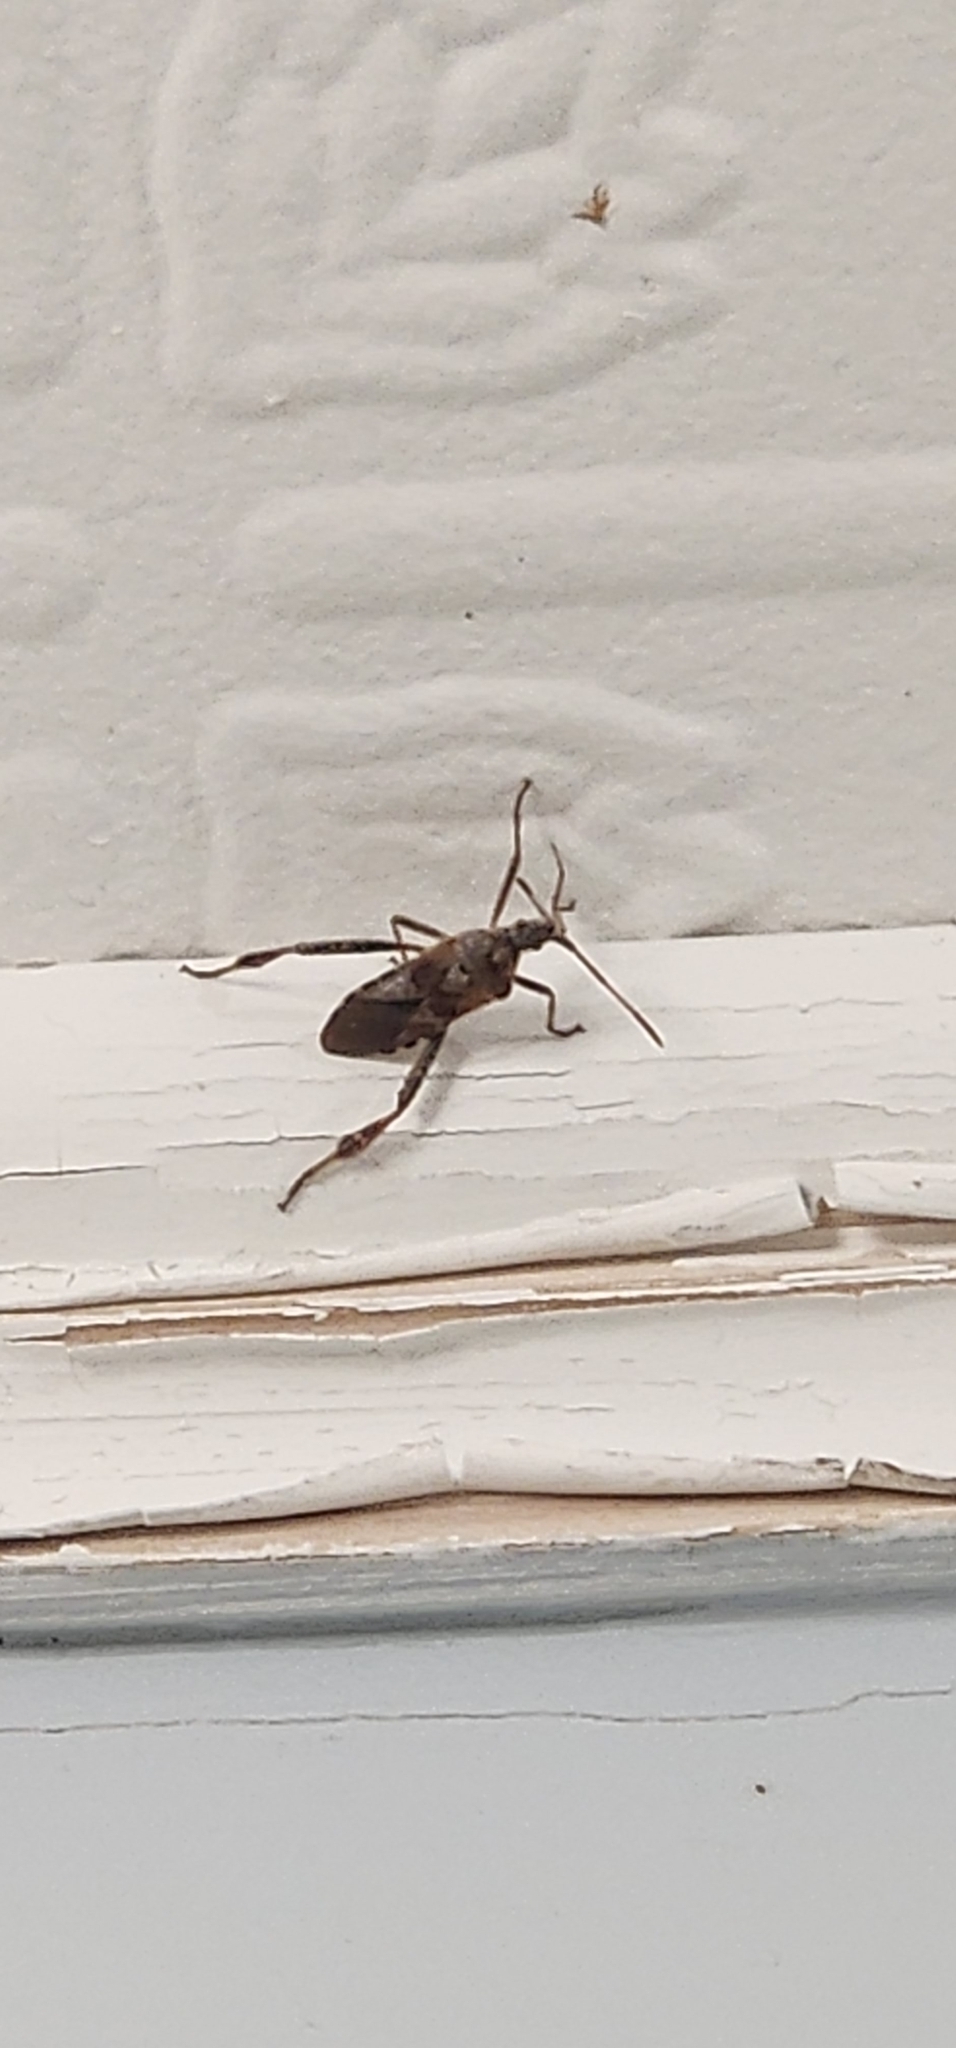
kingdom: Animalia
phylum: Arthropoda
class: Insecta
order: Hemiptera
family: Coreidae
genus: Leptoglossus
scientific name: Leptoglossus occidentalis
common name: Western conifer-seed bug
